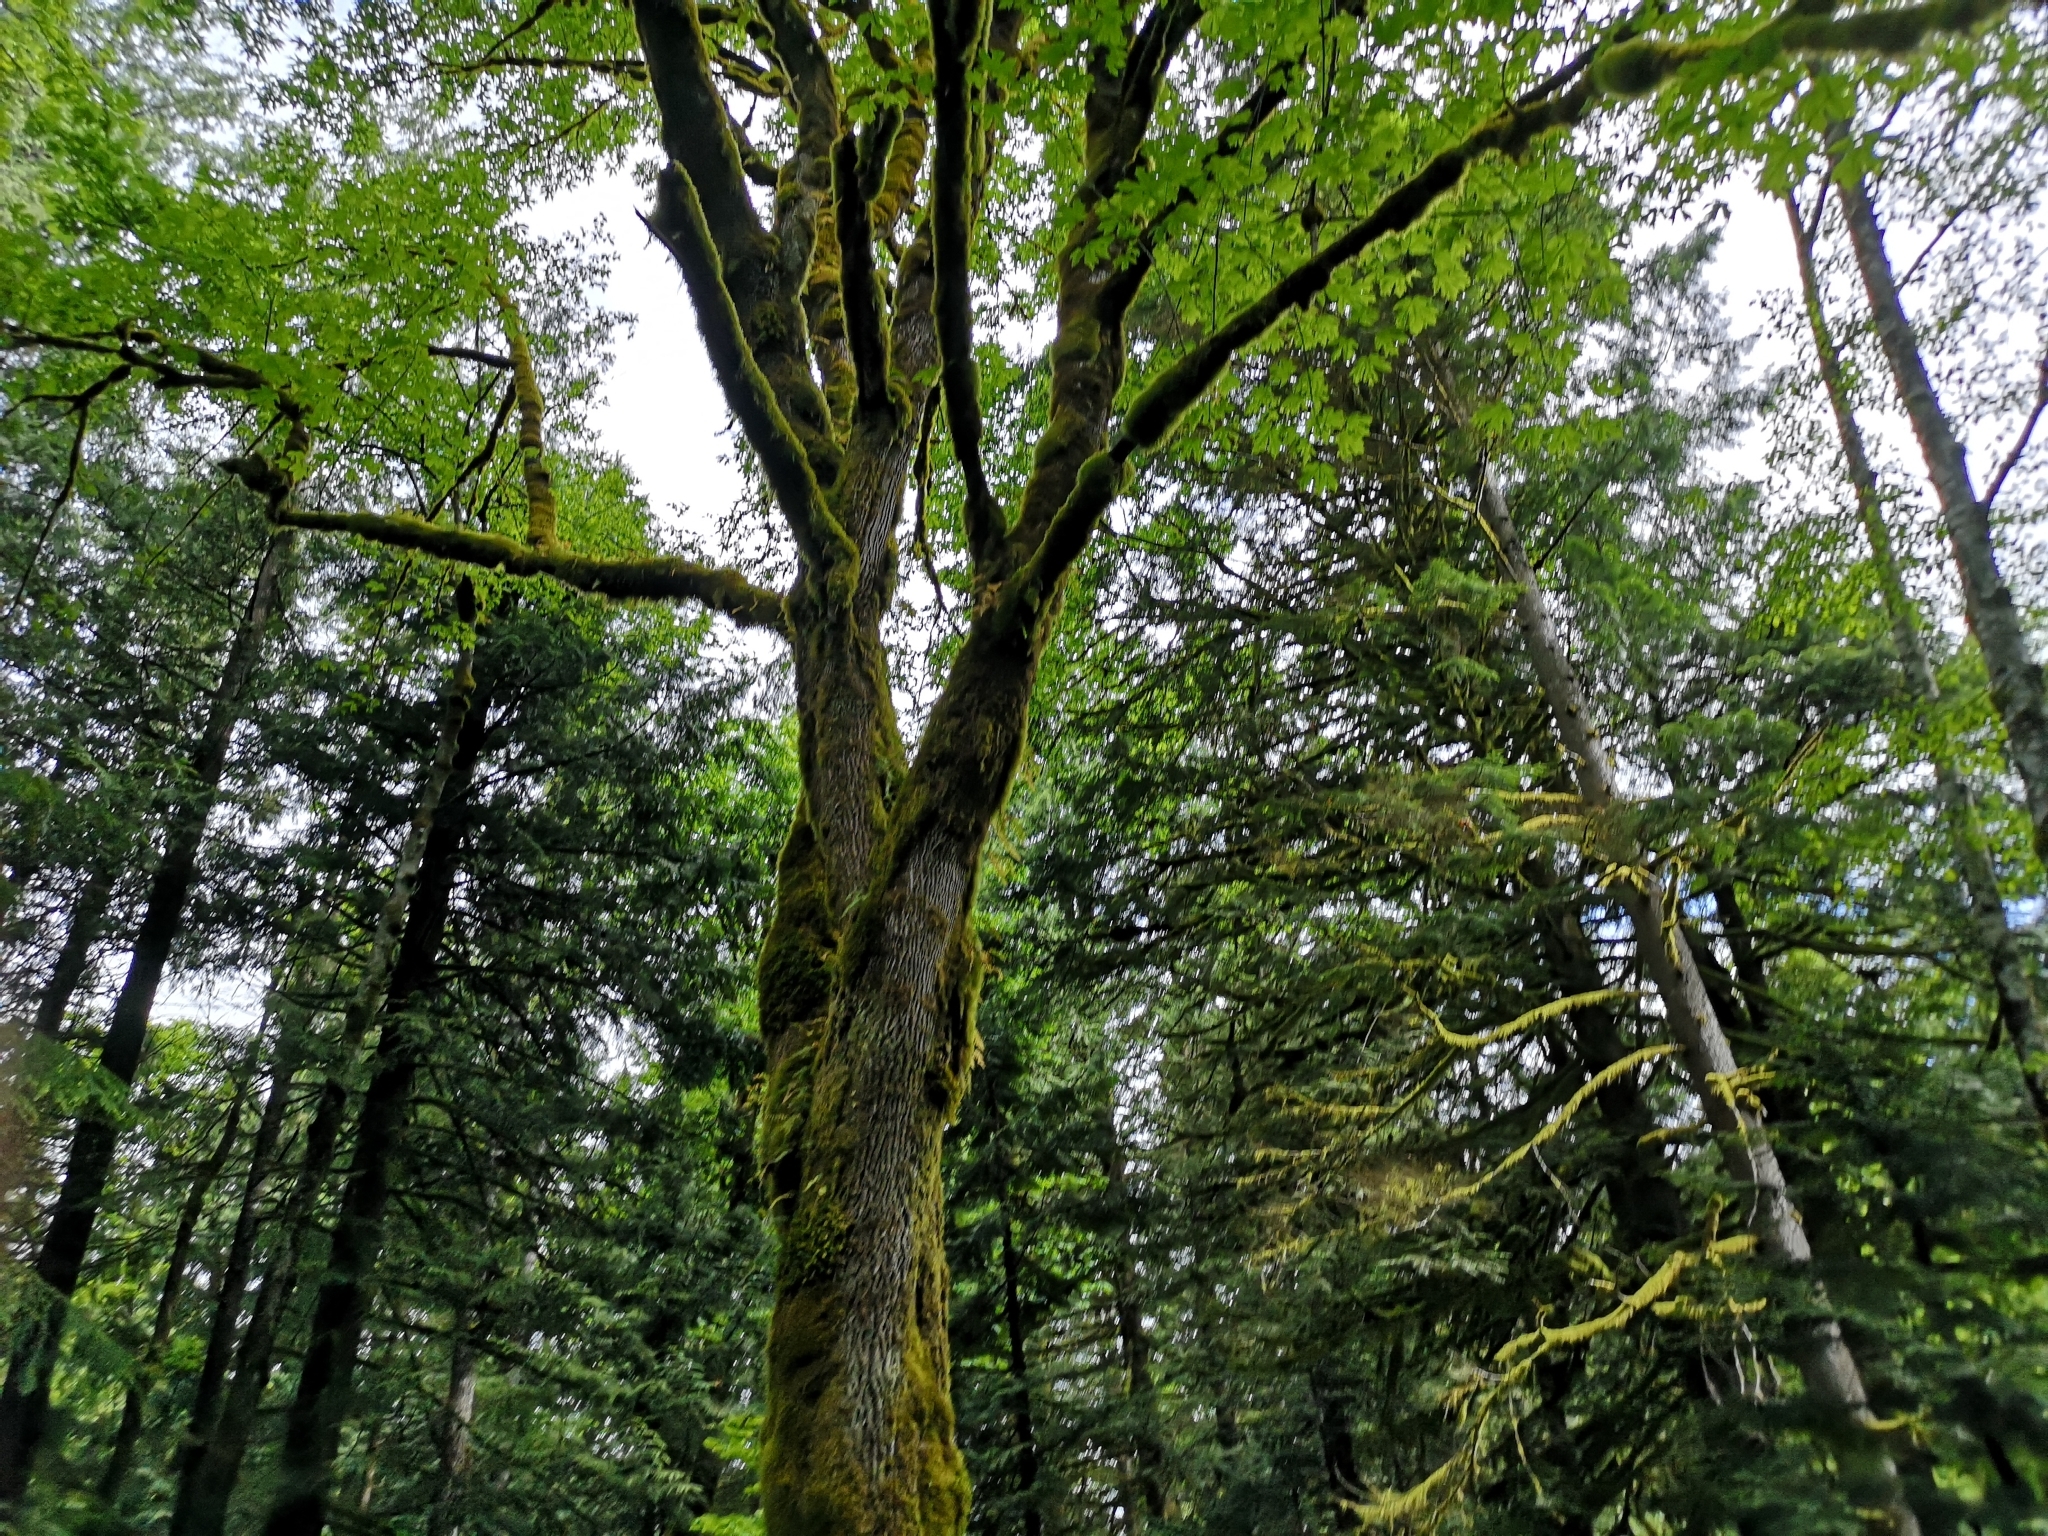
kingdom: Plantae
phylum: Tracheophyta
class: Magnoliopsida
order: Sapindales
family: Sapindaceae
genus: Acer
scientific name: Acer macrophyllum
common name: Oregon maple
